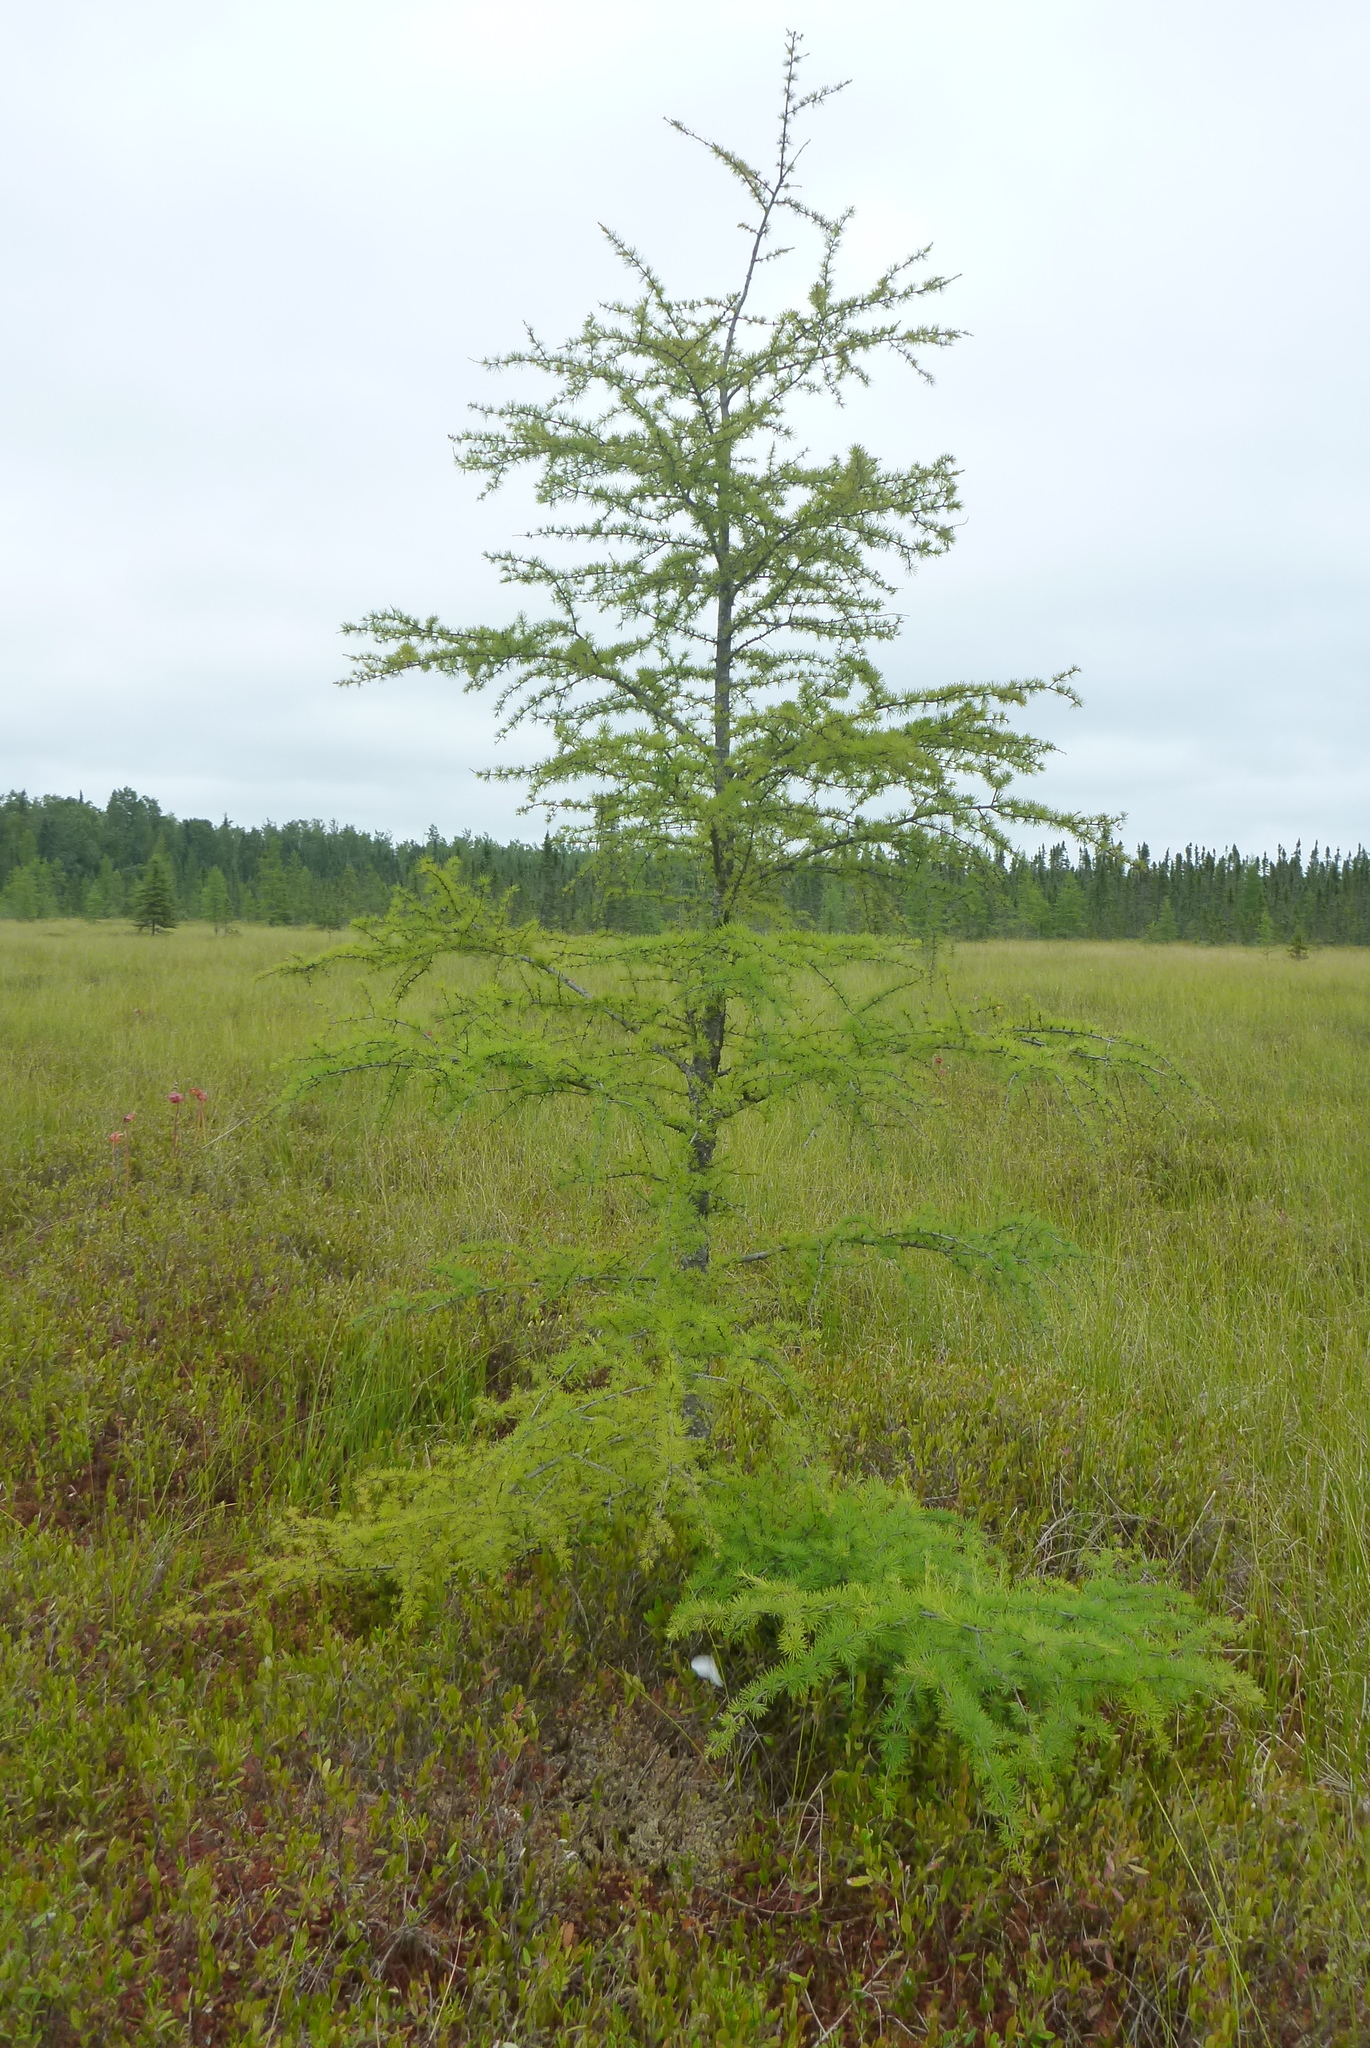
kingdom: Plantae
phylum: Tracheophyta
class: Pinopsida
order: Pinales
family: Pinaceae
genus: Larix
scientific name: Larix laricina
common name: American larch
